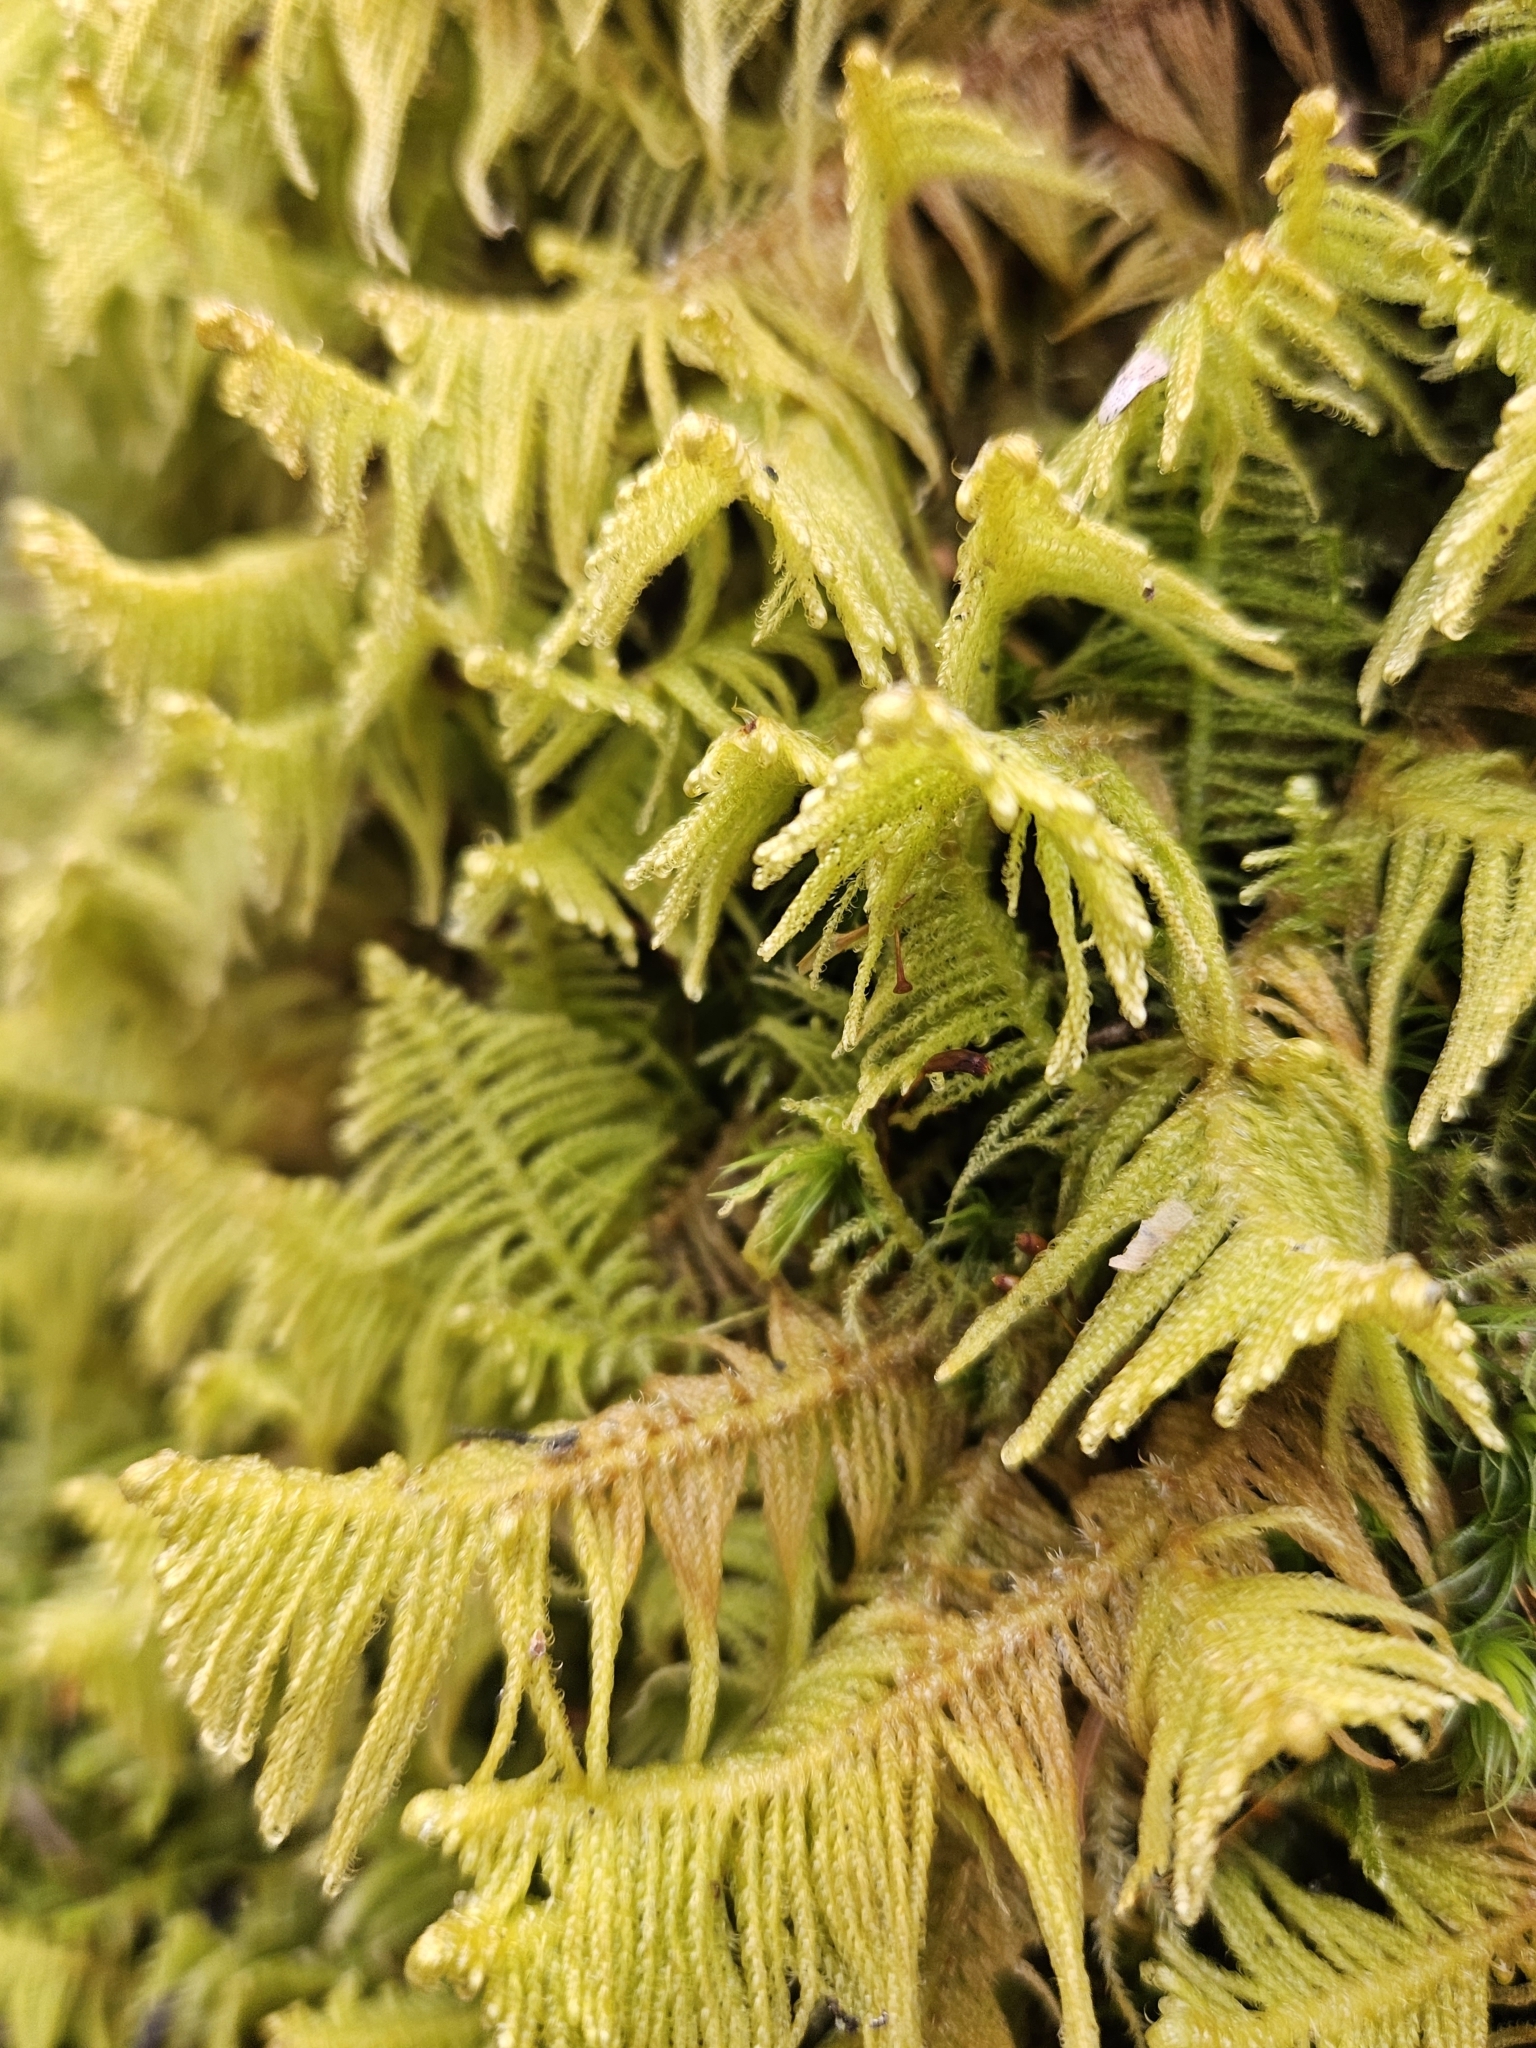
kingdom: Plantae
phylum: Bryophyta
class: Bryopsida
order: Hypnales
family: Pylaisiaceae
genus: Ptilium
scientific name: Ptilium crista-castrensis
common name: Knight's plume moss
